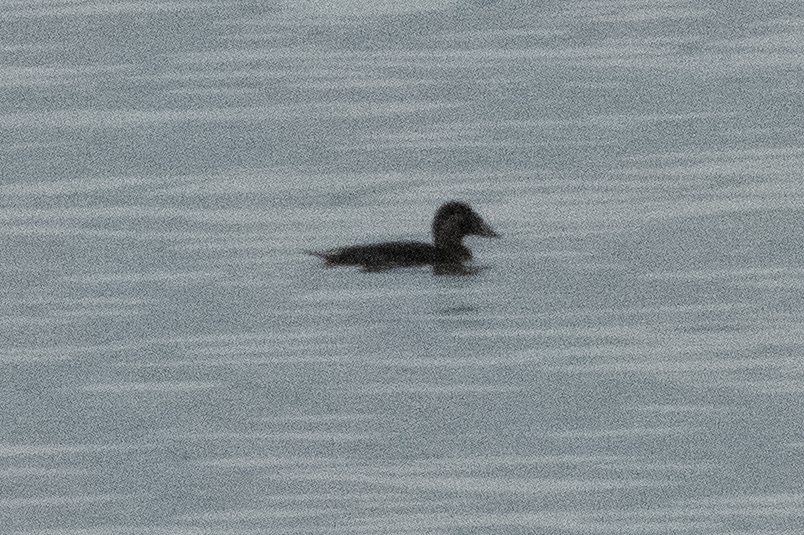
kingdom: Animalia
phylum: Chordata
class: Aves
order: Anseriformes
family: Anatidae
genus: Melanitta
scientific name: Melanitta perspicillata
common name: Surf scoter
